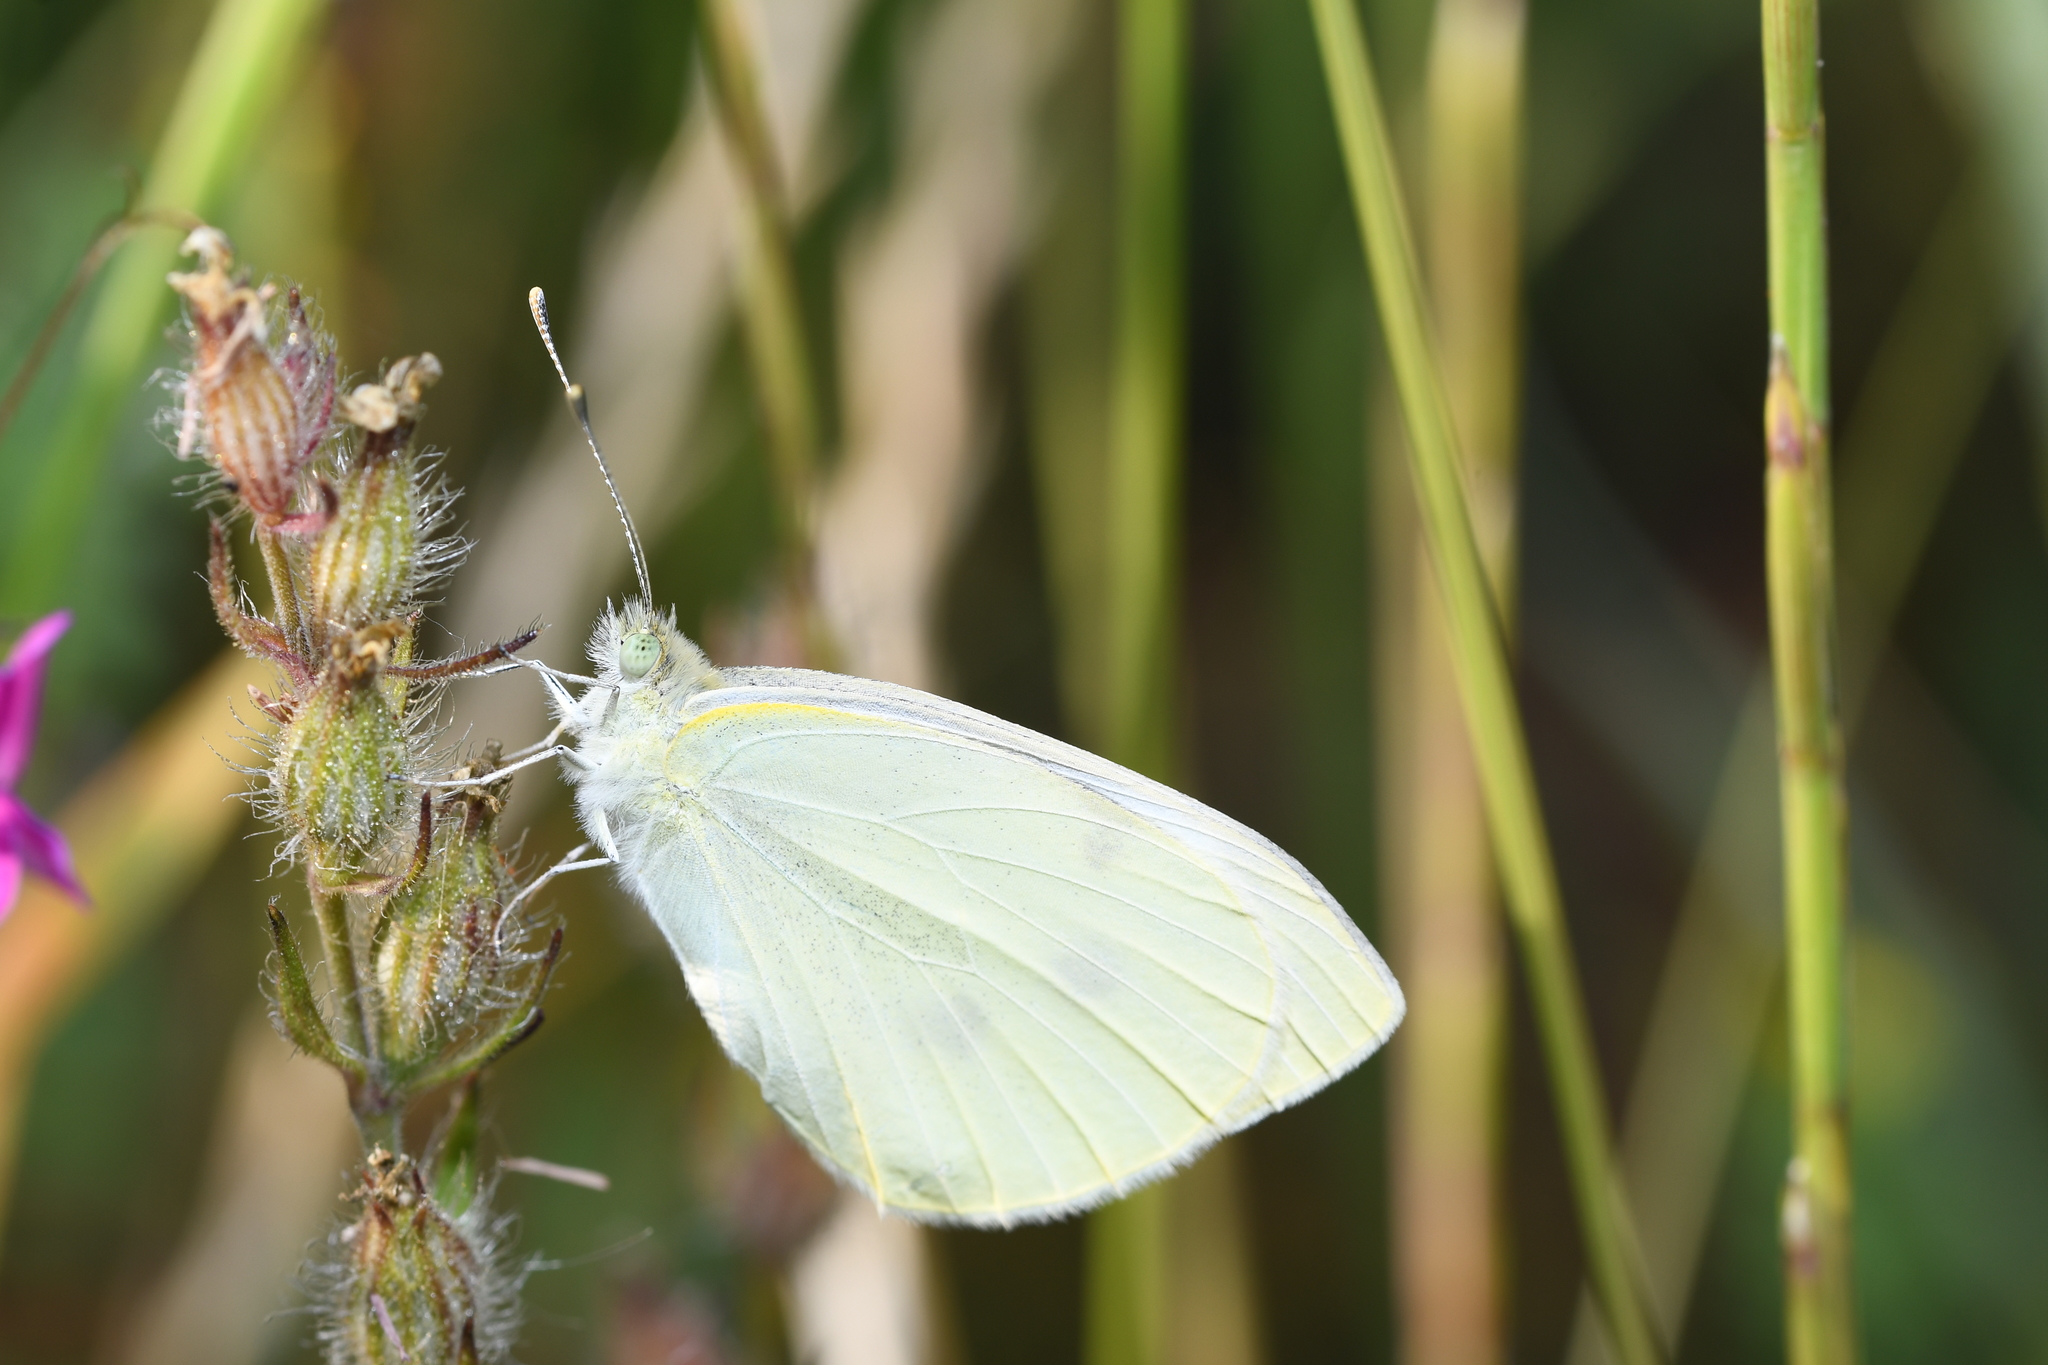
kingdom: Animalia
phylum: Arthropoda
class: Insecta
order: Lepidoptera
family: Pieridae
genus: Pieris
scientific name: Pieris rapae
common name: Small white
